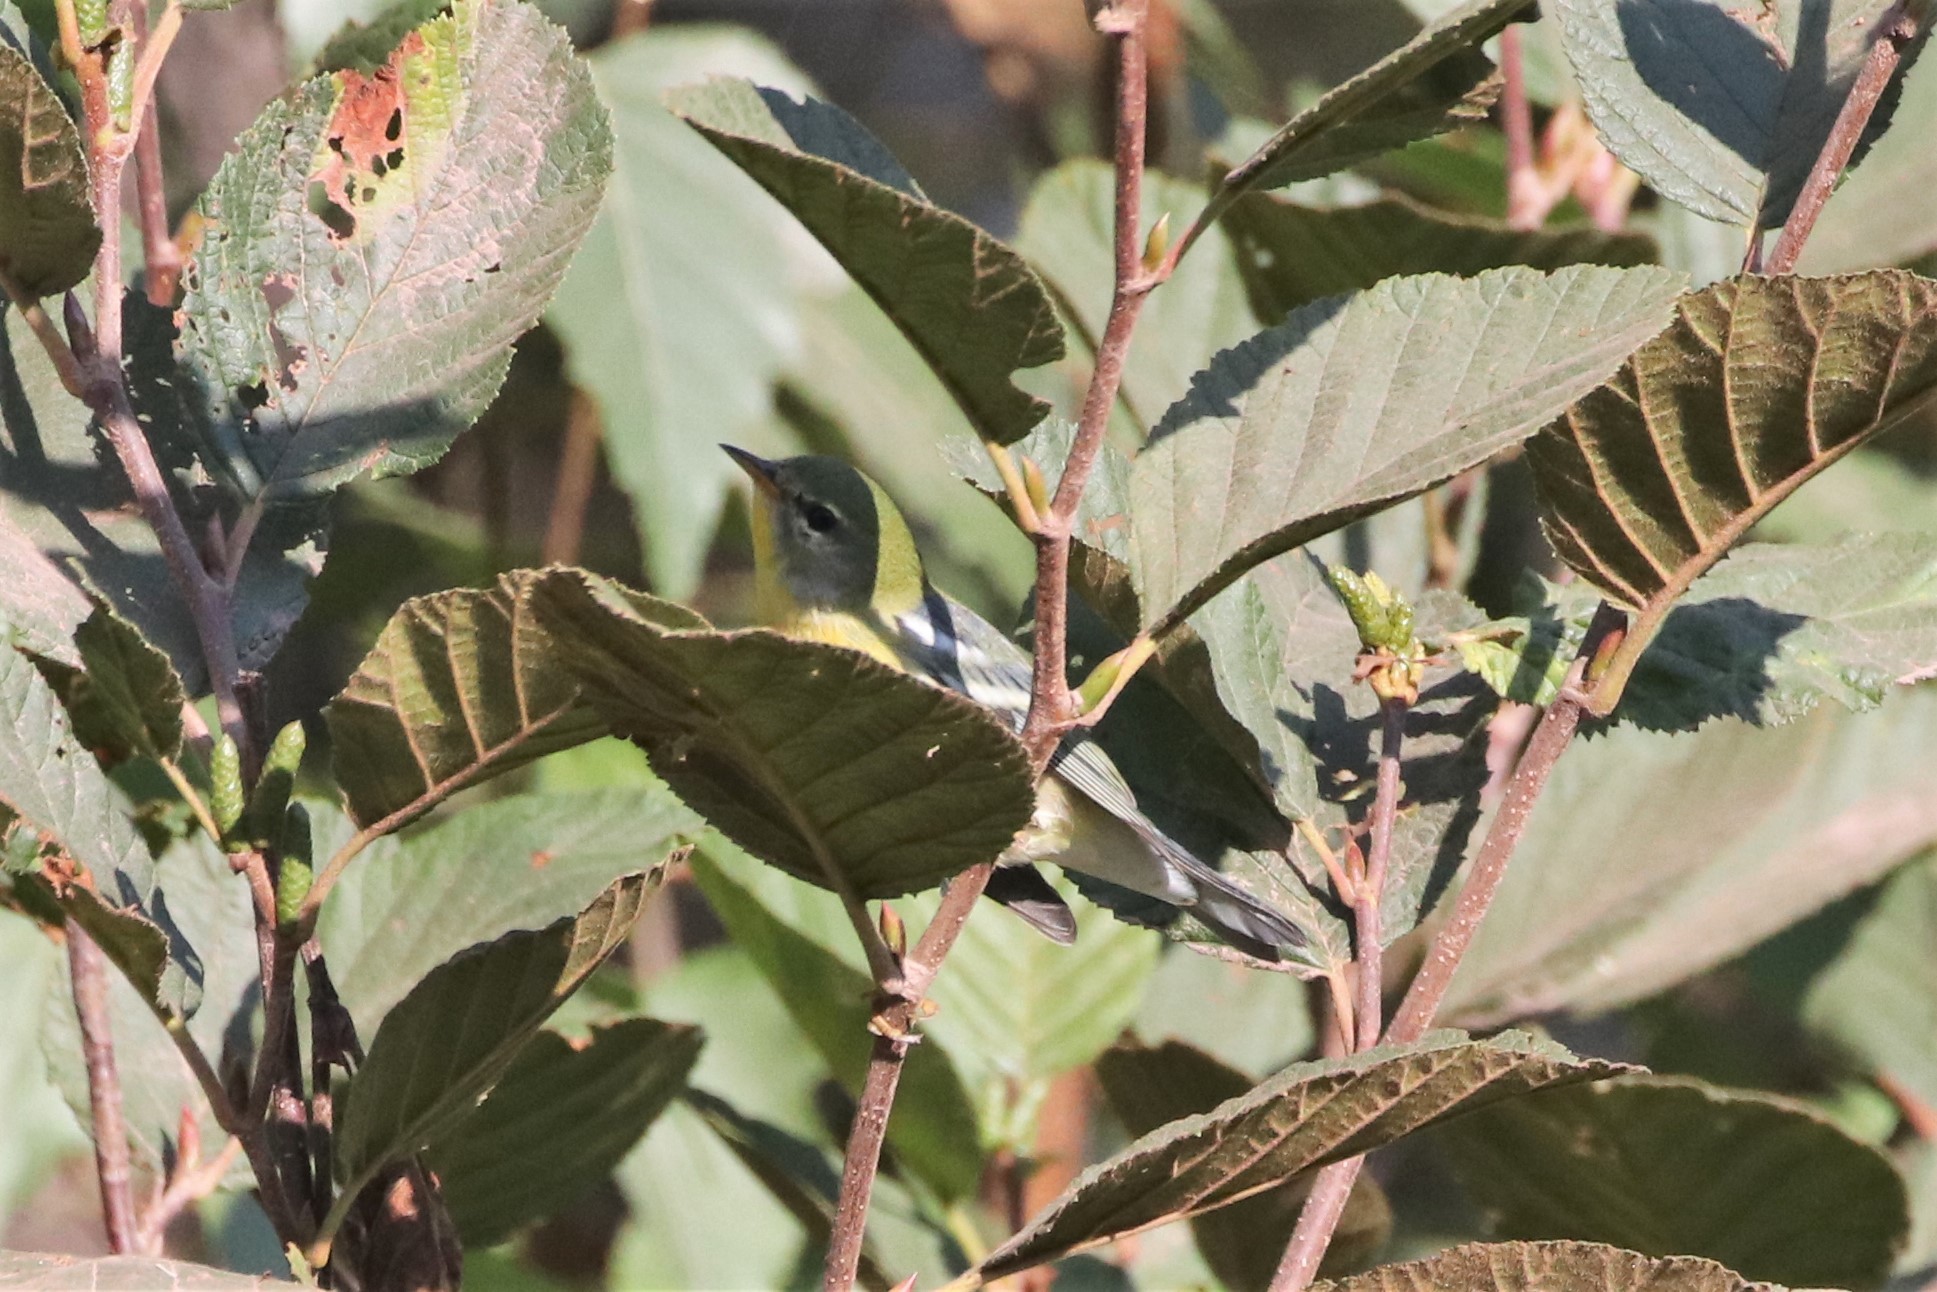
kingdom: Animalia
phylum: Chordata
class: Aves
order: Passeriformes
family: Parulidae
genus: Setophaga
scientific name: Setophaga americana
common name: Northern parula
